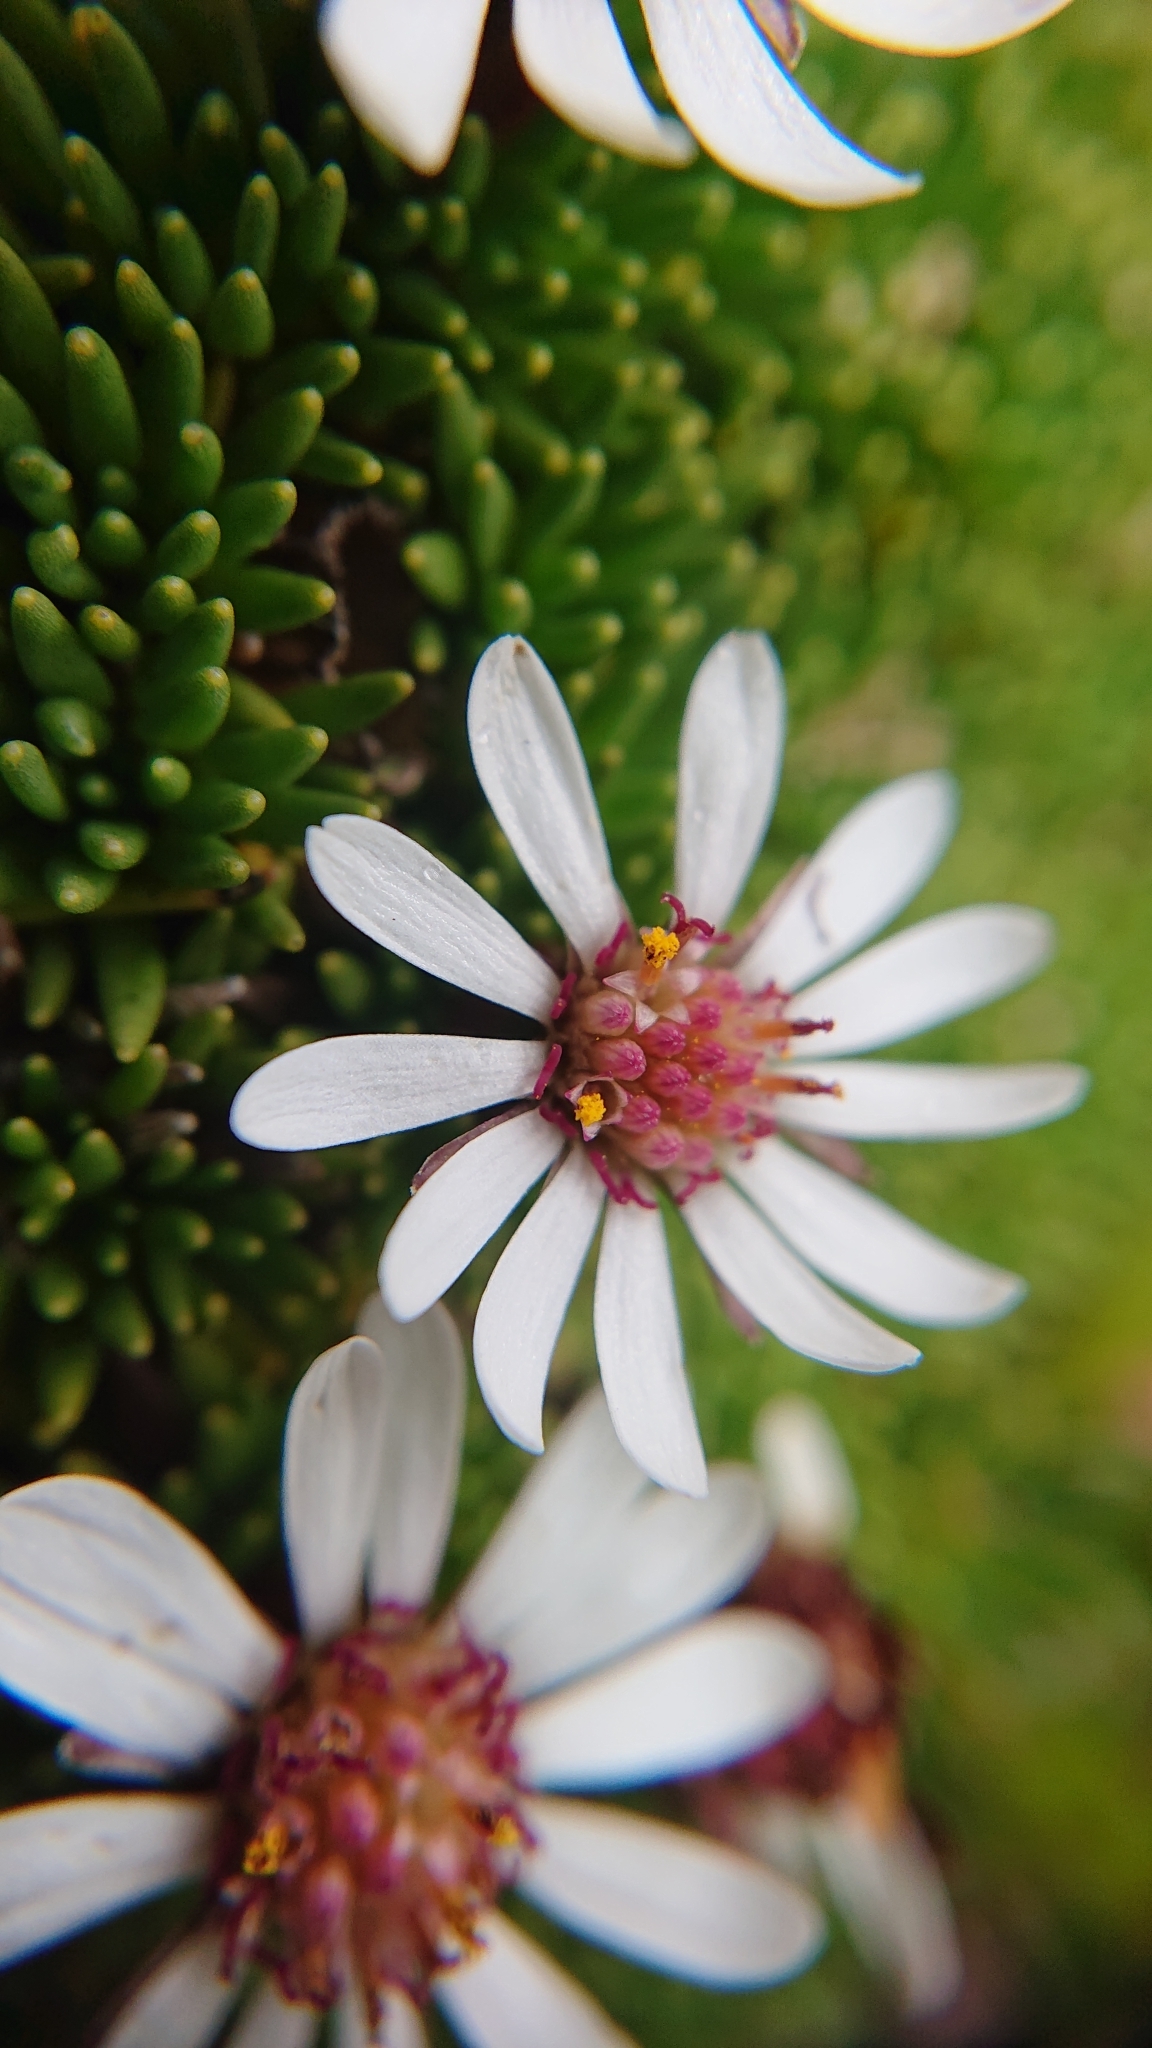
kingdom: Plantae
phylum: Tracheophyta
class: Magnoliopsida
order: Asterales
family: Asteraceae
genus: Werneria
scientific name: Werneria humilis
